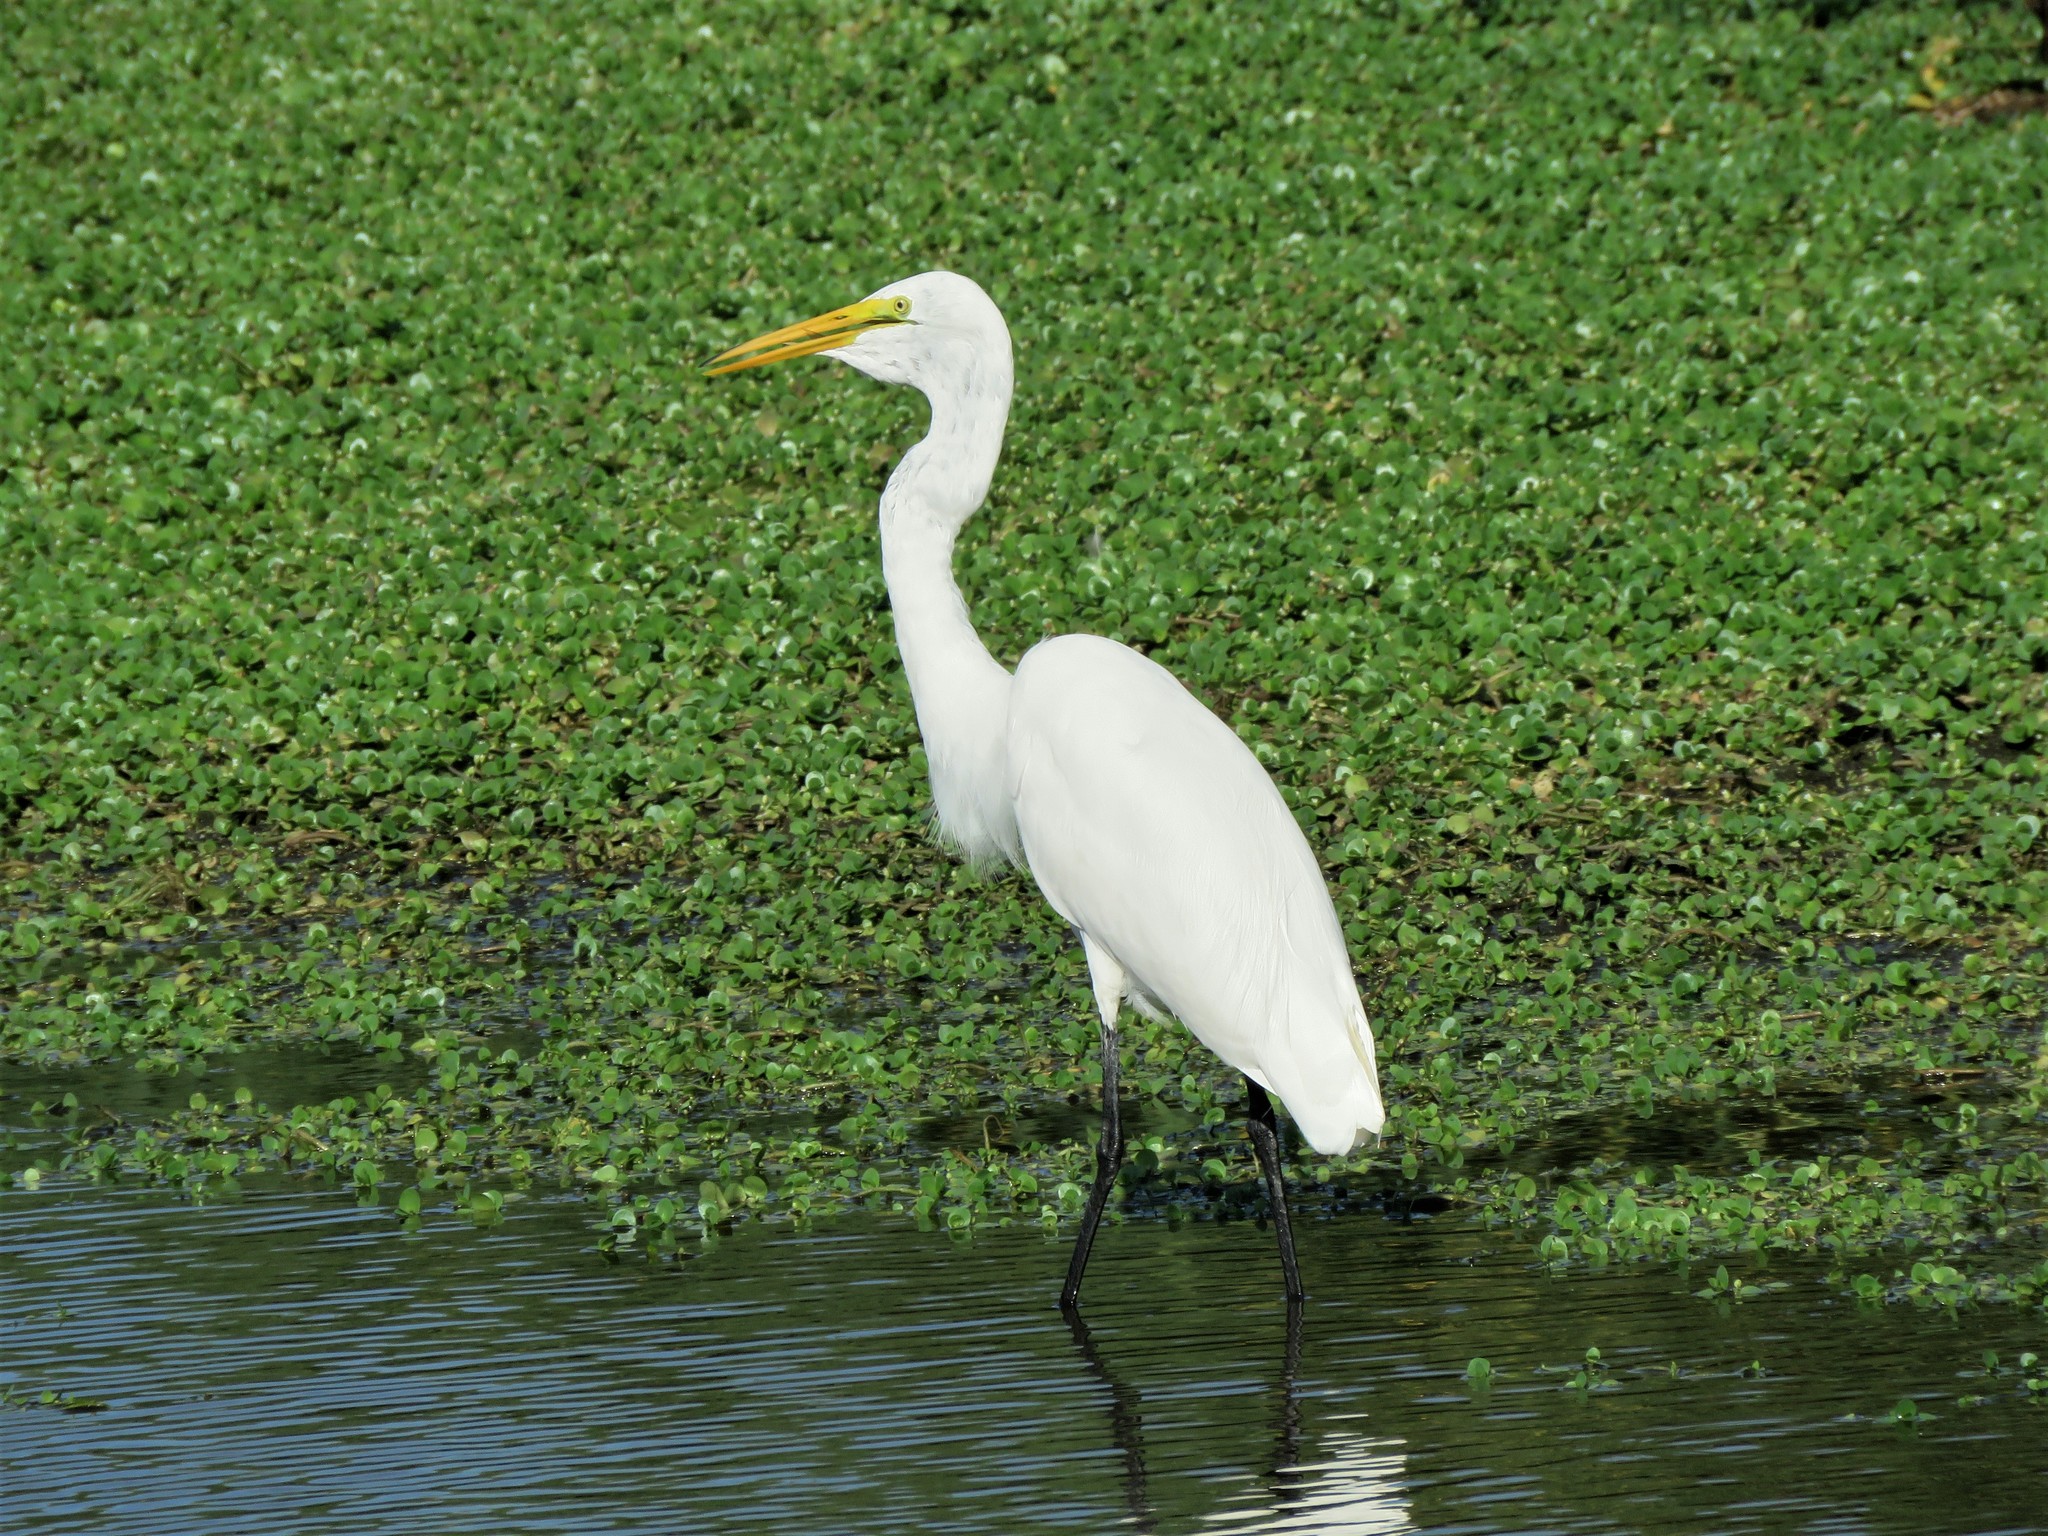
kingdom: Animalia
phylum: Chordata
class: Aves
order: Pelecaniformes
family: Ardeidae
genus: Ardea
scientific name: Ardea alba
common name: Great egret
